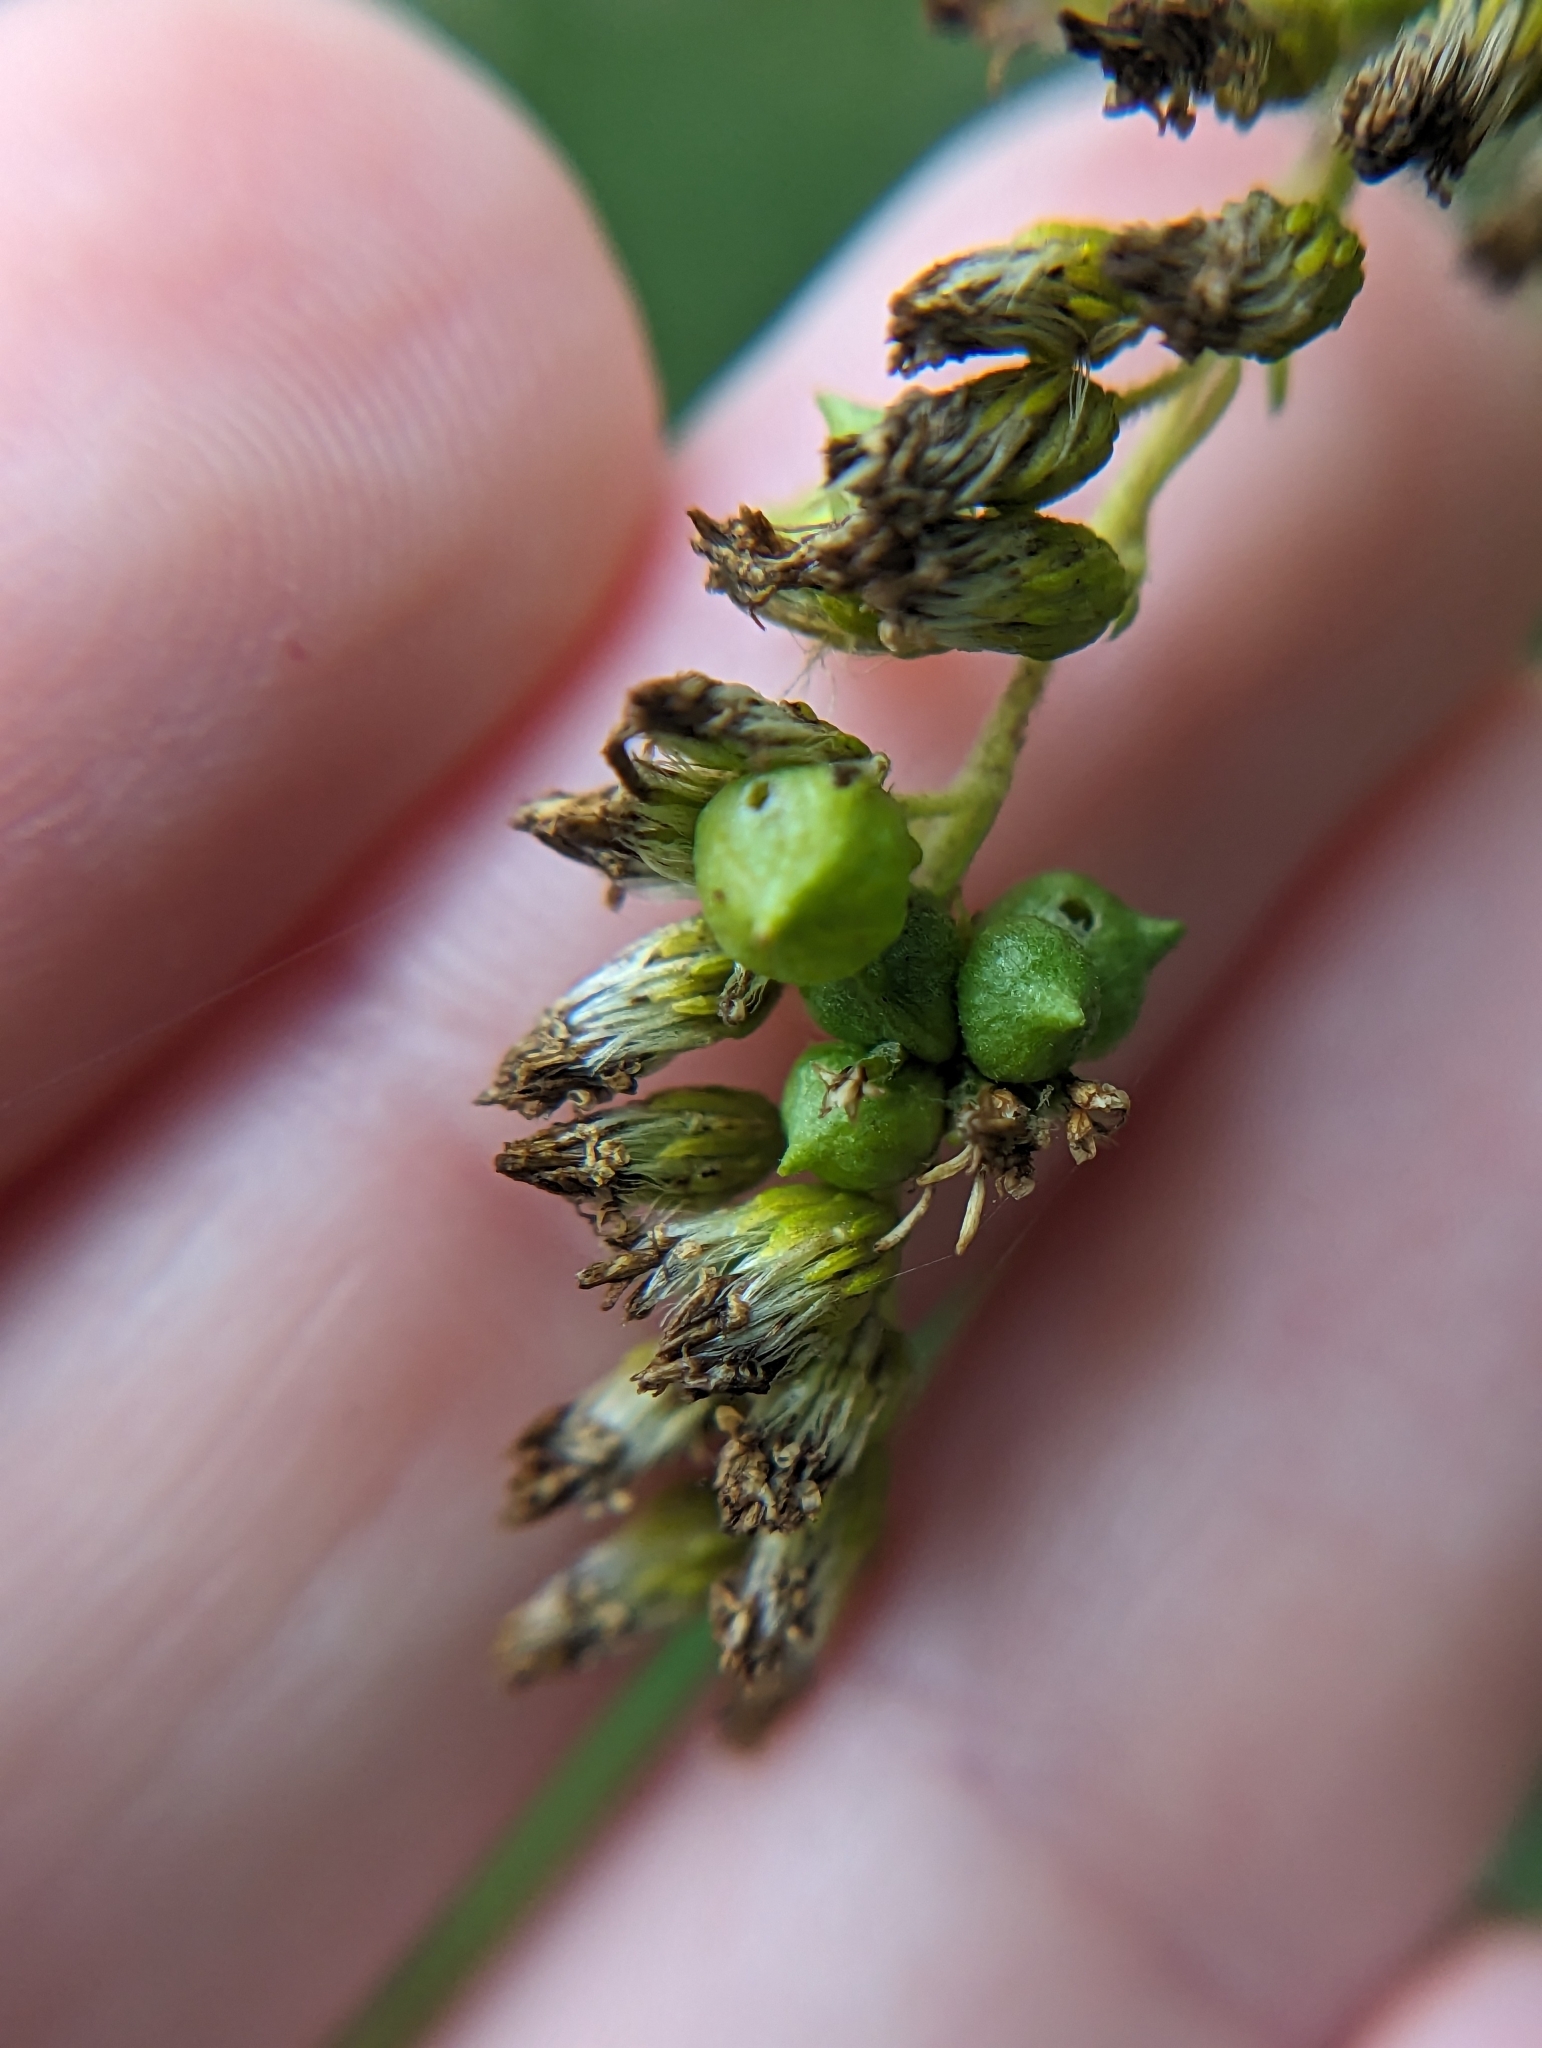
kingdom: Animalia
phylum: Arthropoda
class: Insecta
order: Diptera
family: Cecidomyiidae
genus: Schizomyia
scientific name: Schizomyia racemicola
